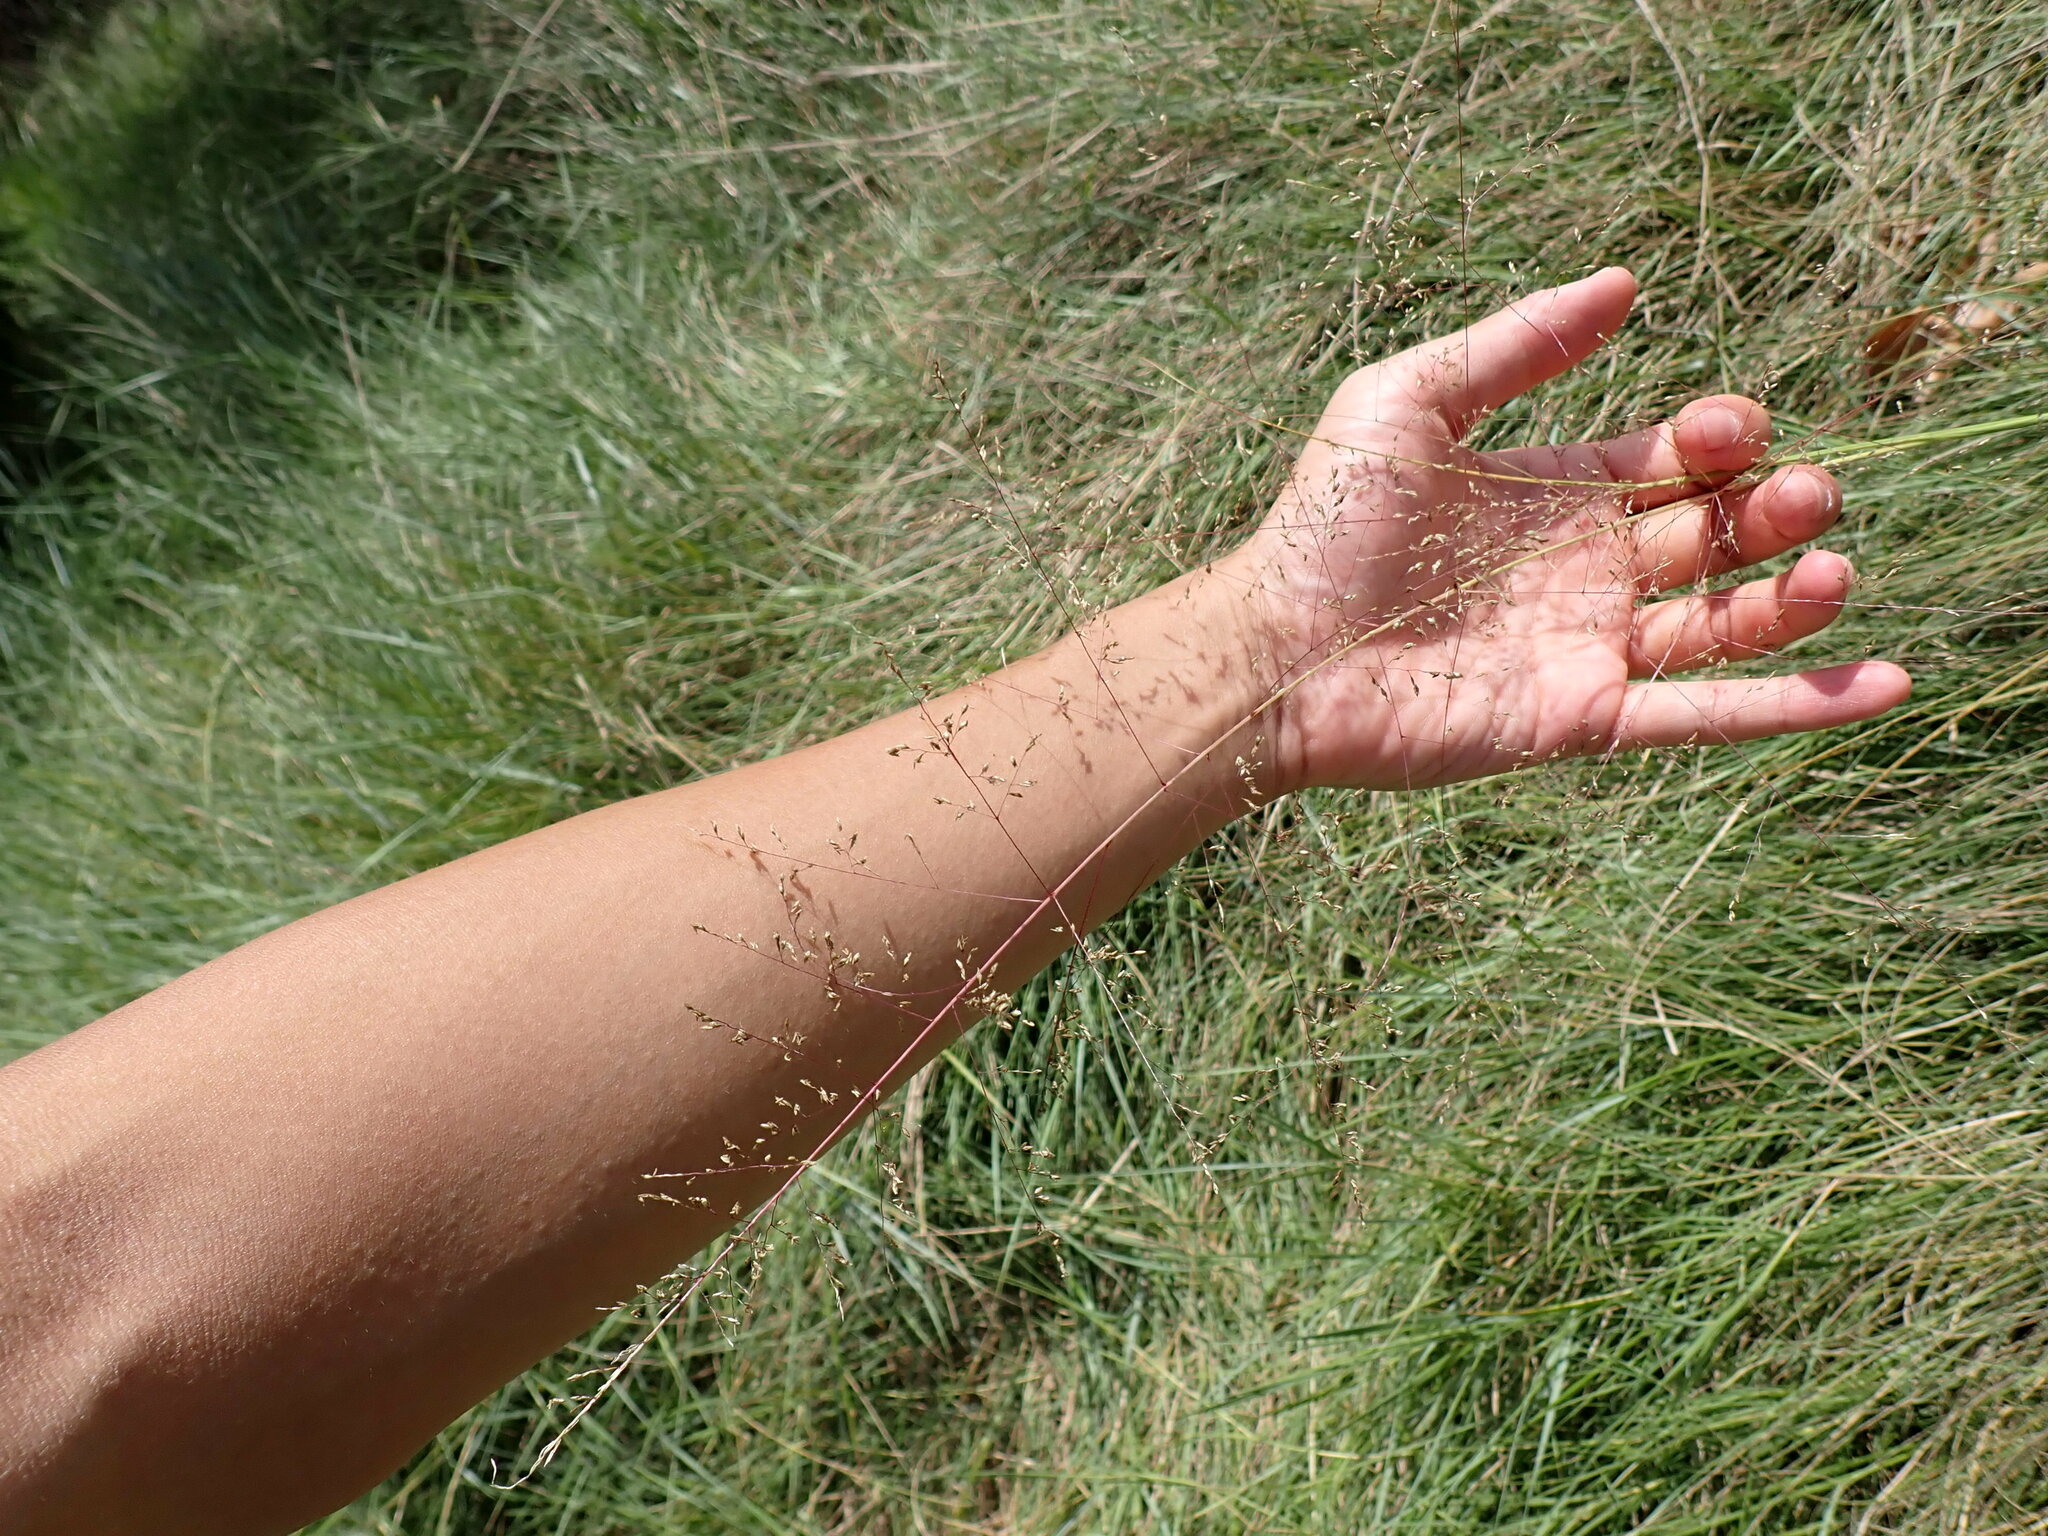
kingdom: Plantae
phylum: Tracheophyta
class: Liliopsida
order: Poales
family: Poaceae
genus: Sporobolus
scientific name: Sporobolus airoides
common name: Alkali sacaton
